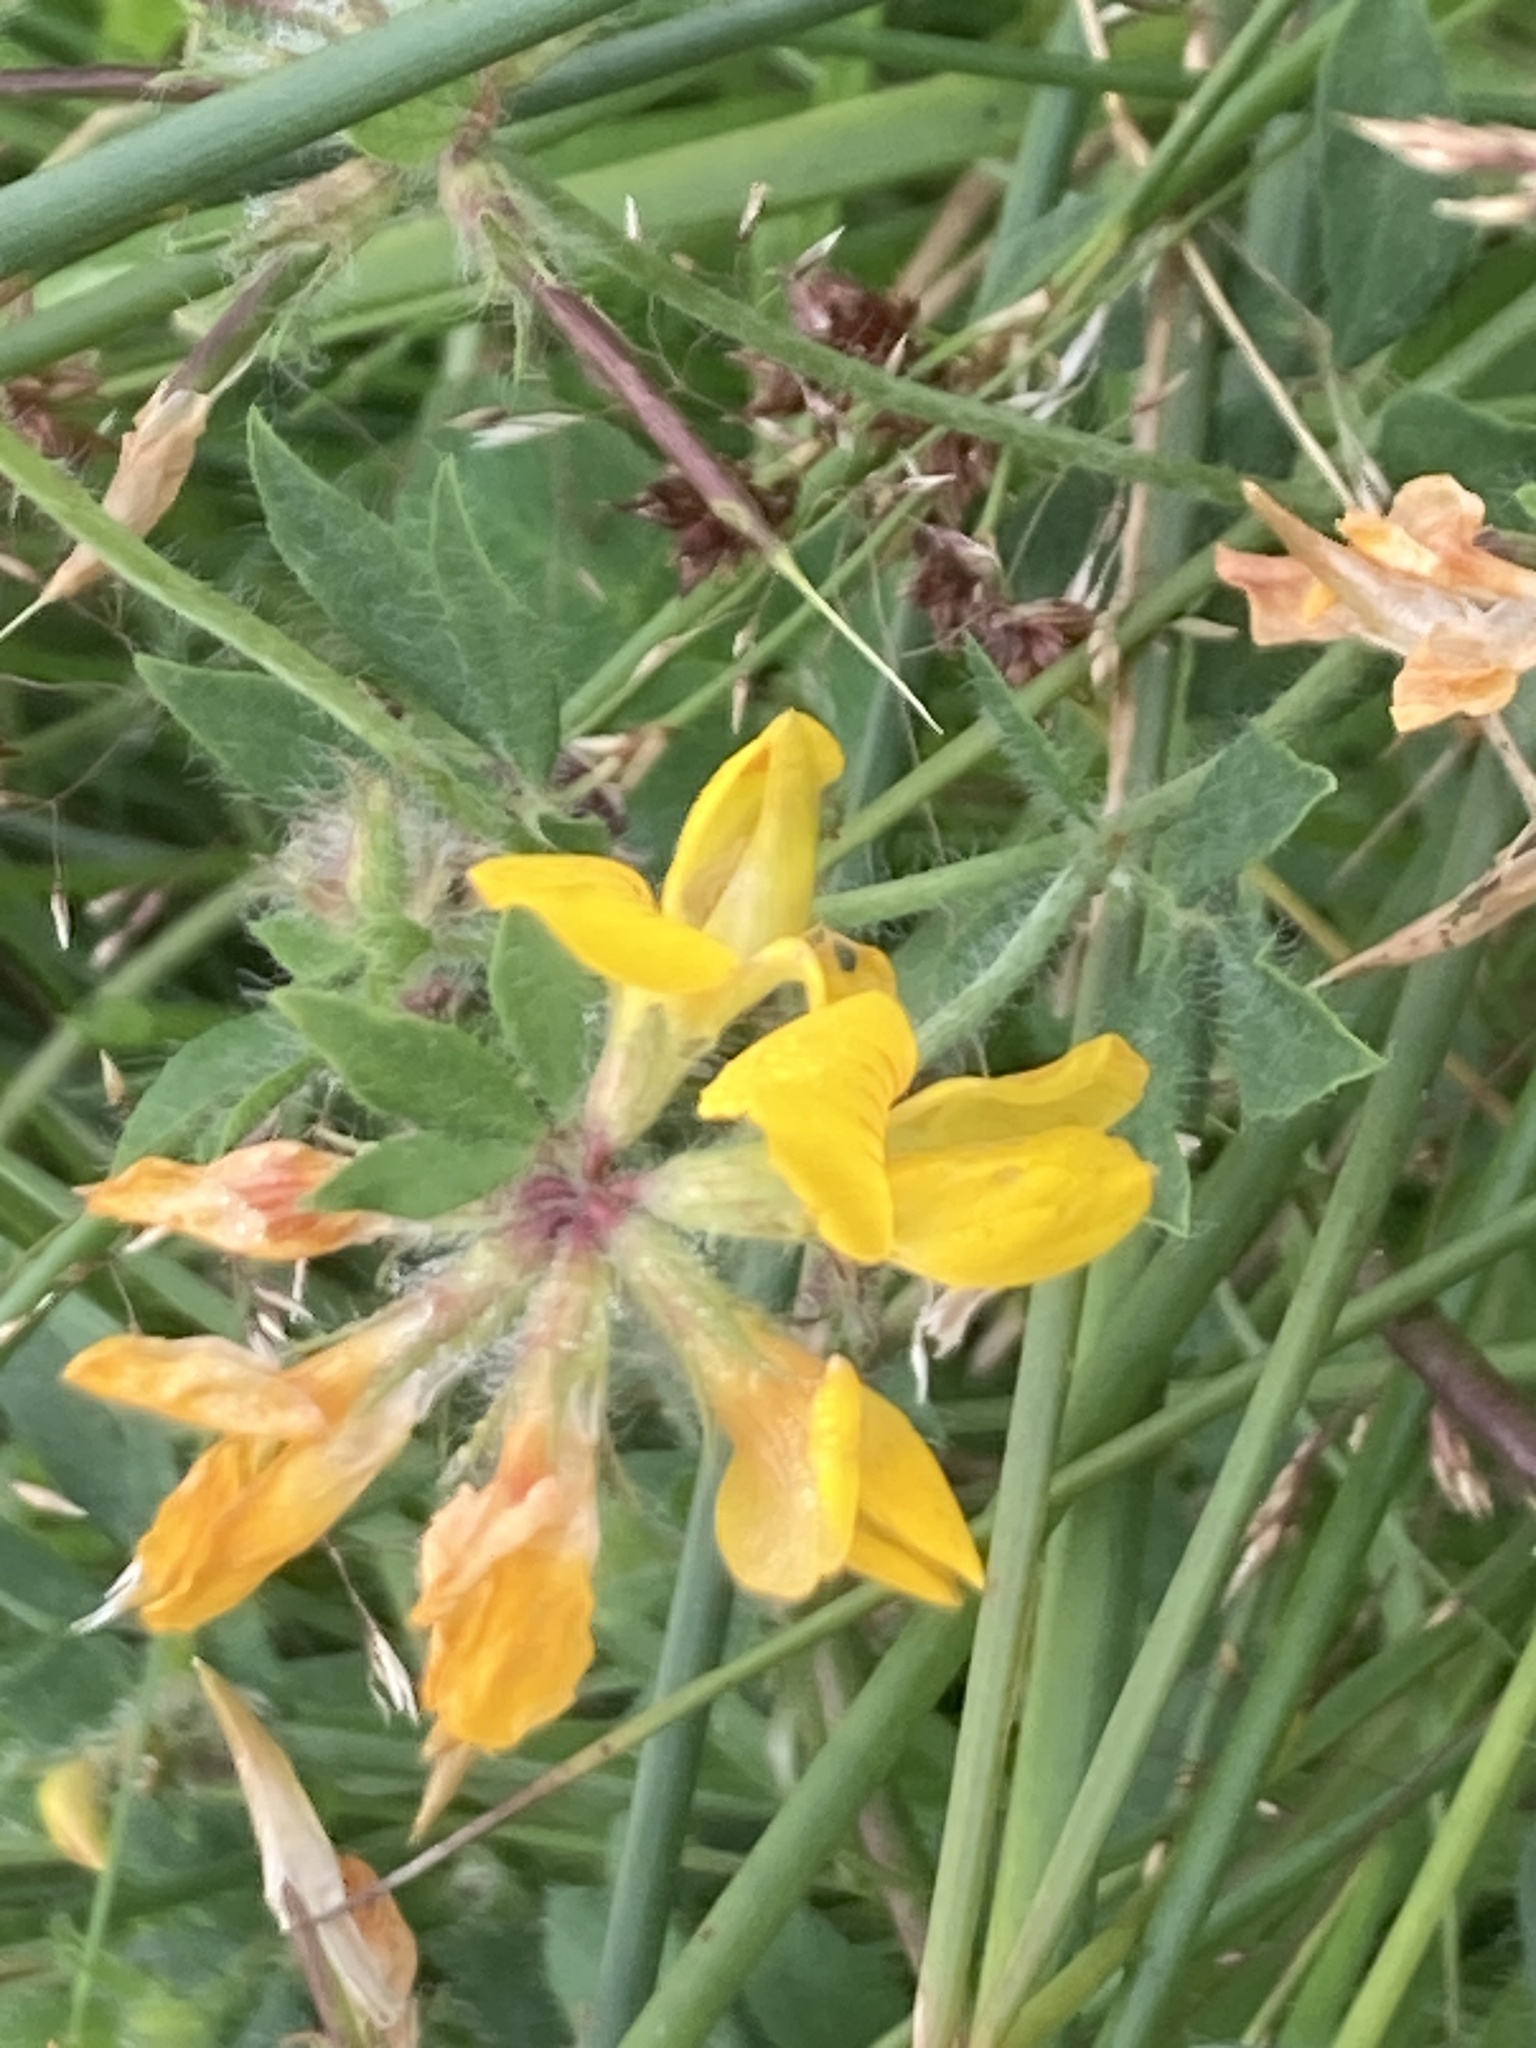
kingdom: Plantae
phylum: Tracheophyta
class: Magnoliopsida
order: Fabales
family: Fabaceae
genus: Lotus
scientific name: Lotus pedunculatus
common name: Greater birdsfoot-trefoil
